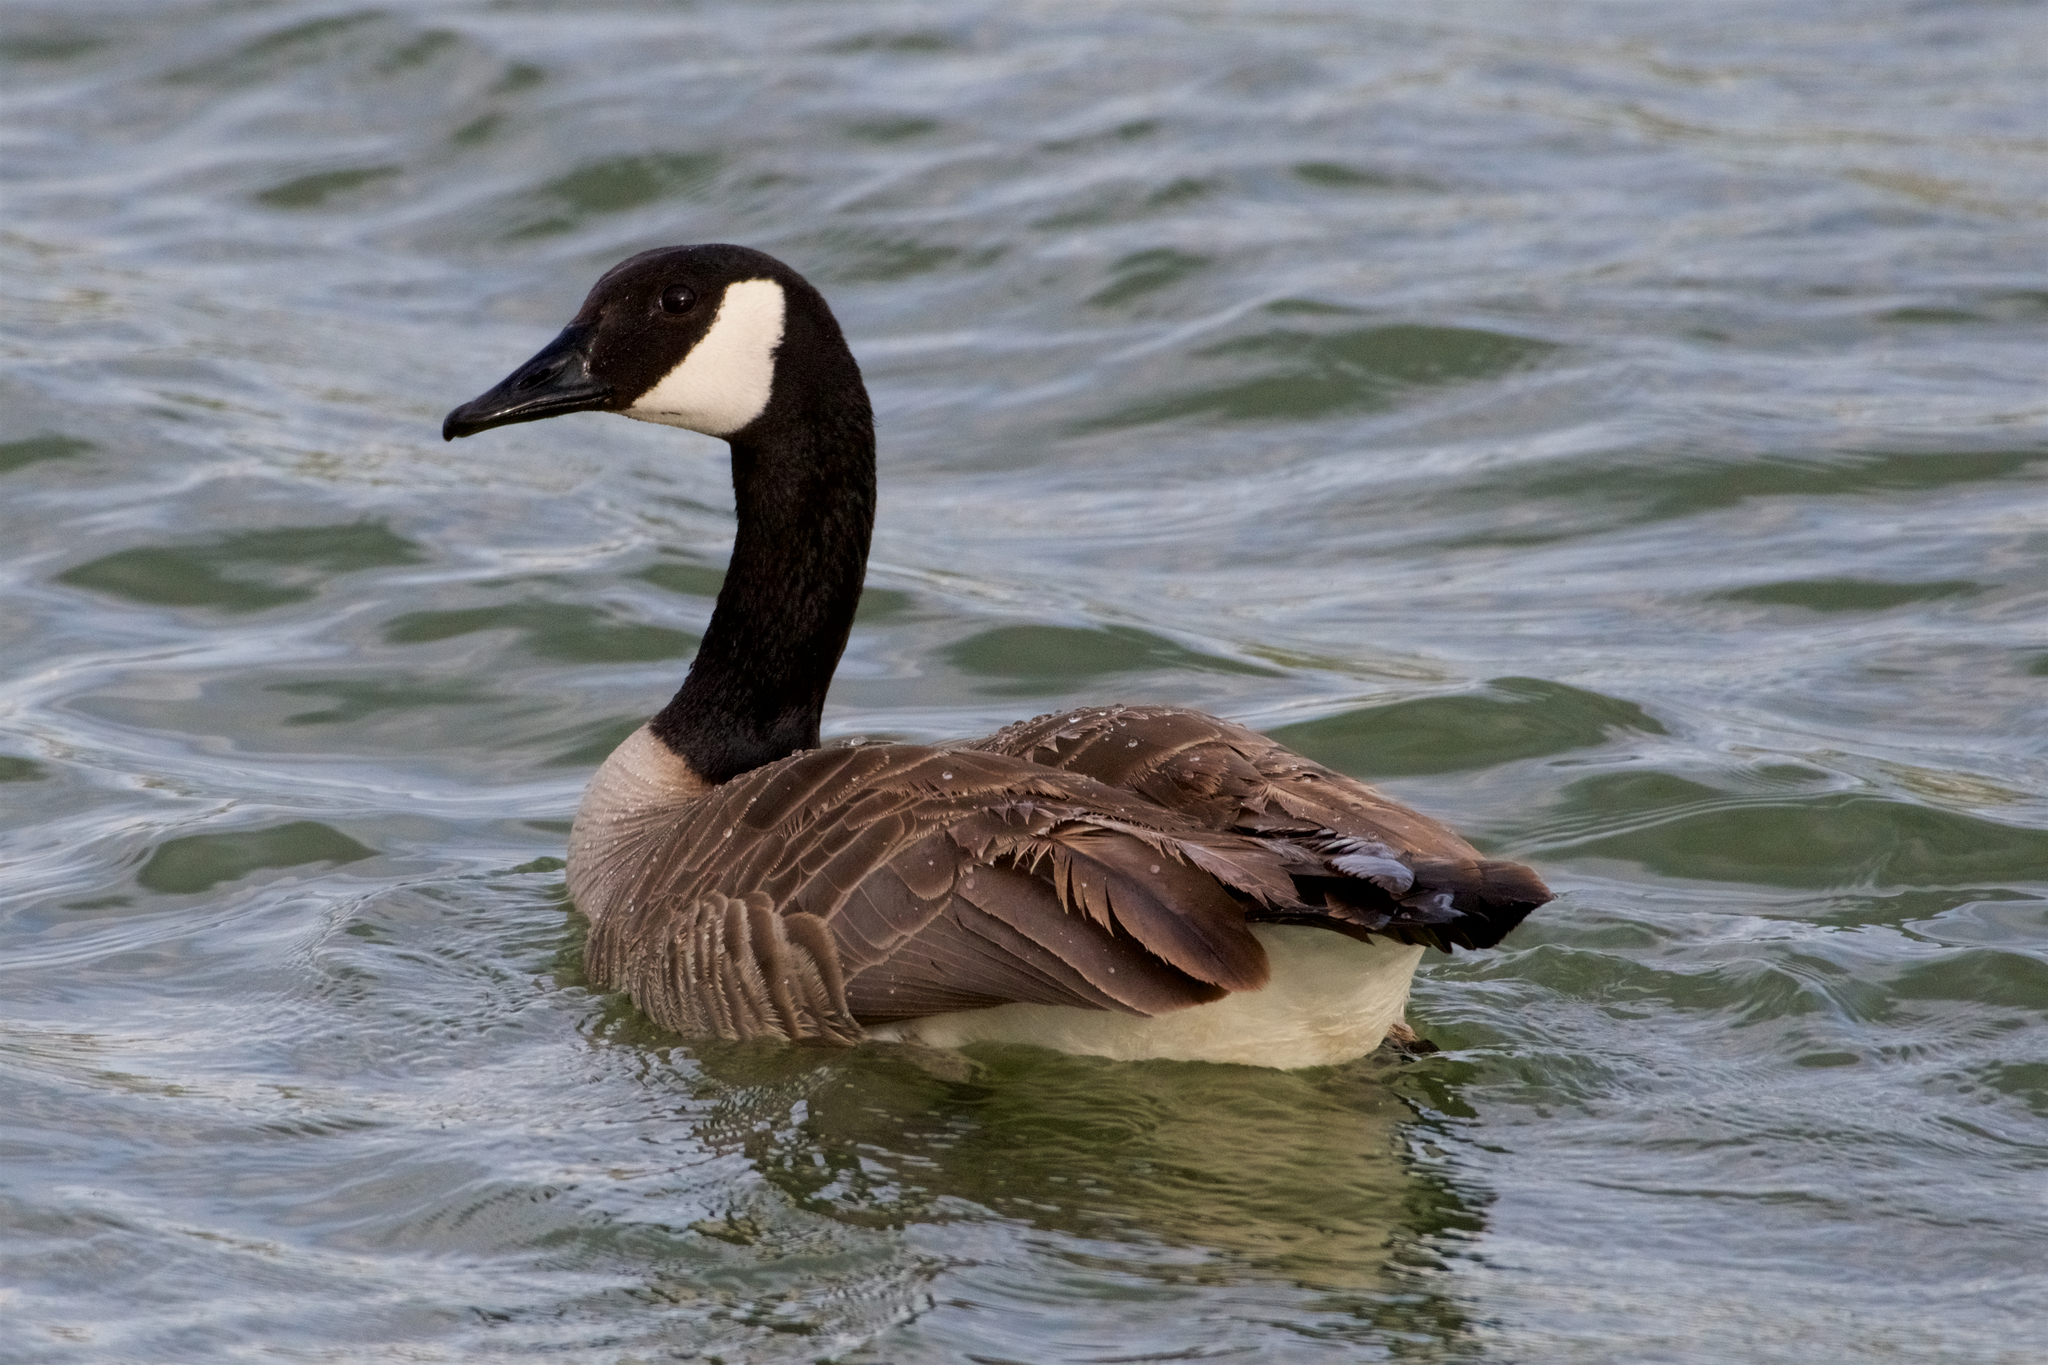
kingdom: Animalia
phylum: Chordata
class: Aves
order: Anseriformes
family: Anatidae
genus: Branta
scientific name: Branta canadensis
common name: Canada goose
